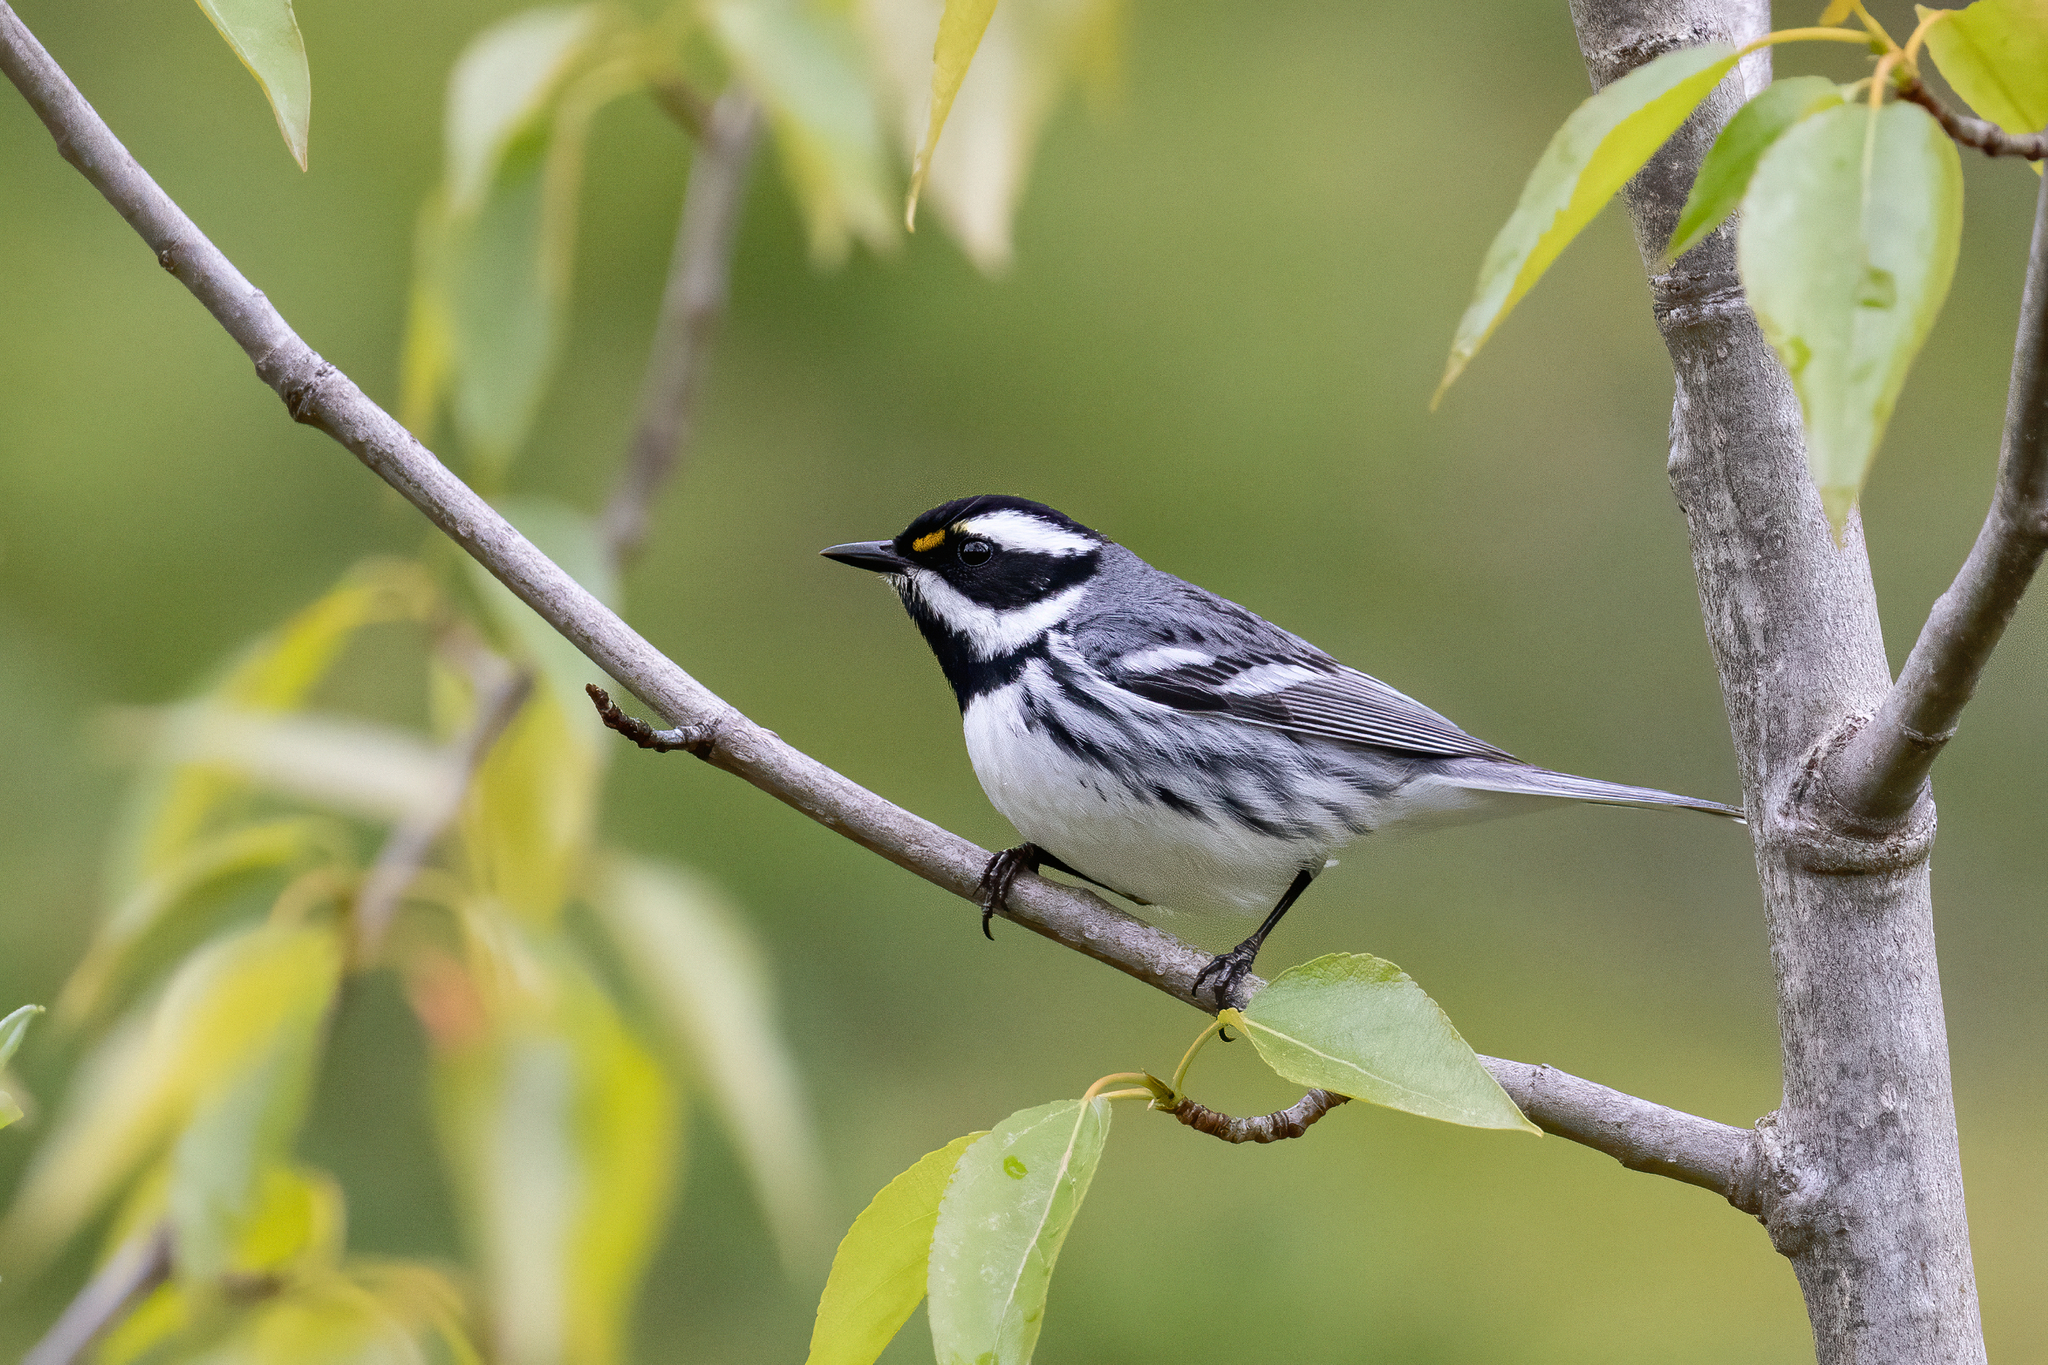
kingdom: Animalia
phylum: Chordata
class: Aves
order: Passeriformes
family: Parulidae
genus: Setophaga
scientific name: Setophaga nigrescens
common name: Black-throated gray warbler
